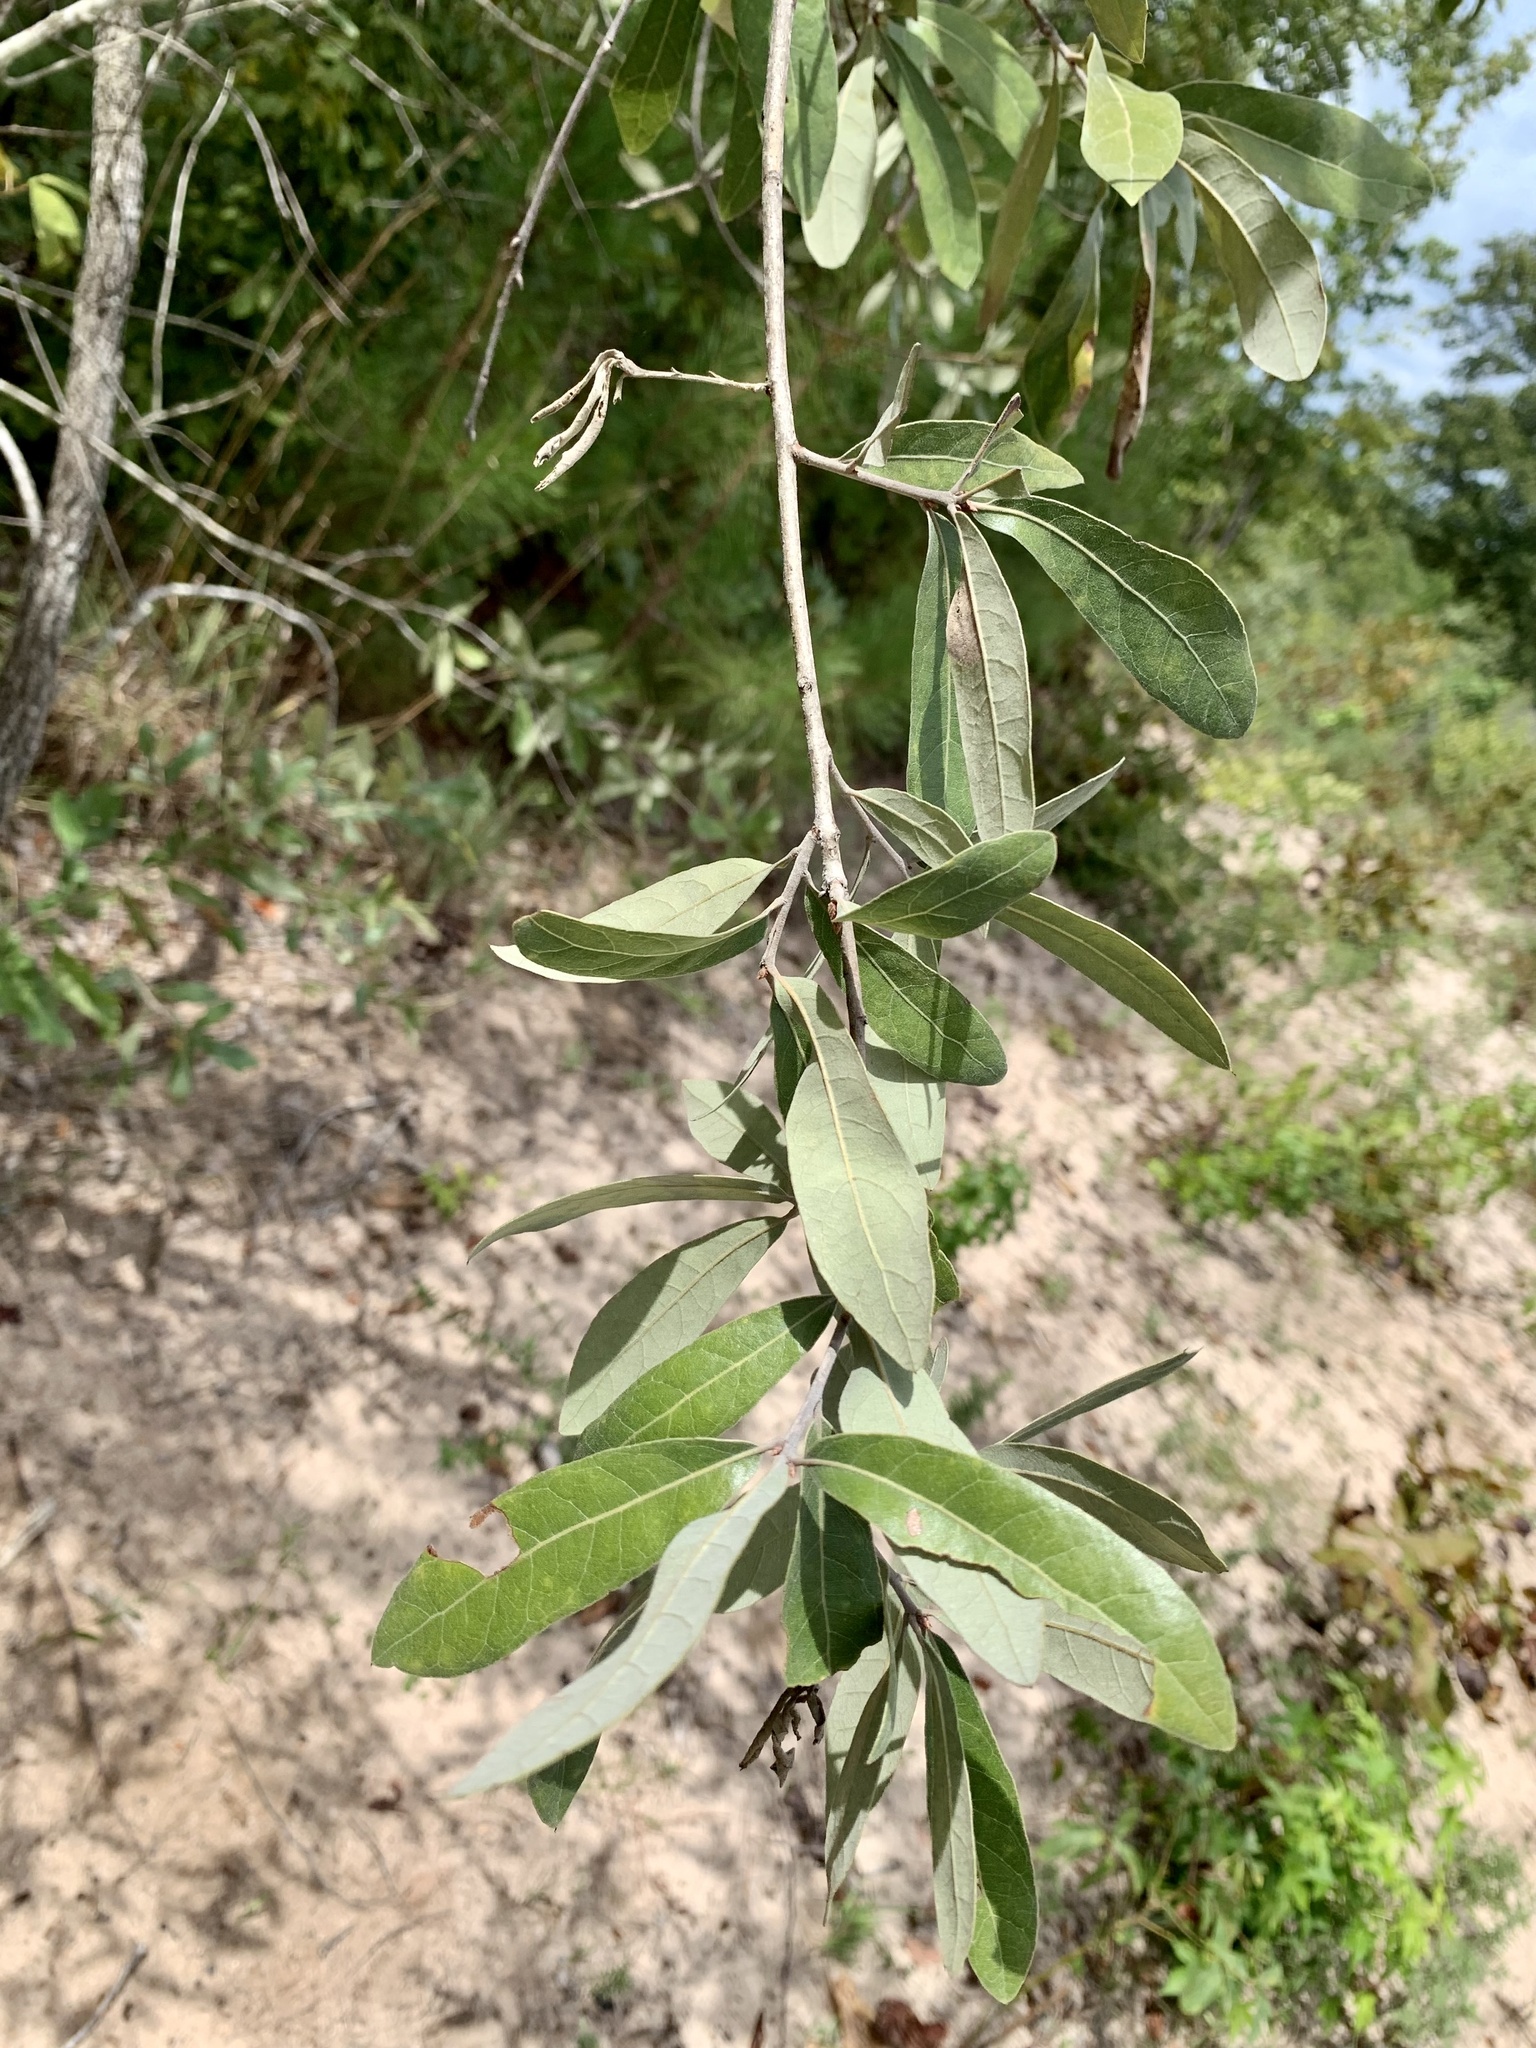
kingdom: Plantae
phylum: Tracheophyta
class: Magnoliopsida
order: Fagales
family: Fagaceae
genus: Quercus
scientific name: Quercus incana
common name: Bluejack oak
